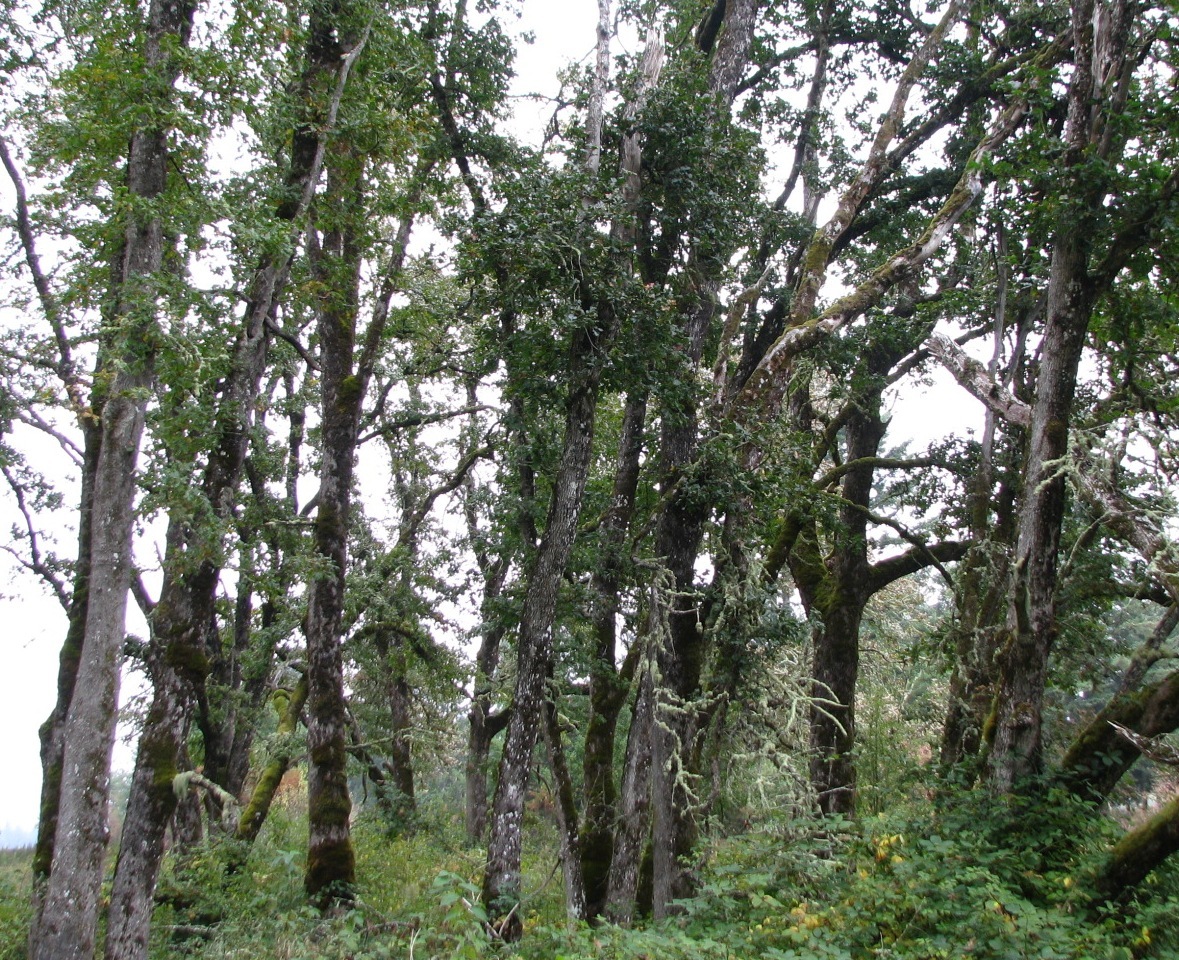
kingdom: Plantae
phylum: Tracheophyta
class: Magnoliopsida
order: Fagales
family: Fagaceae
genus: Quercus
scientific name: Quercus garryana
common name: Garry oak
